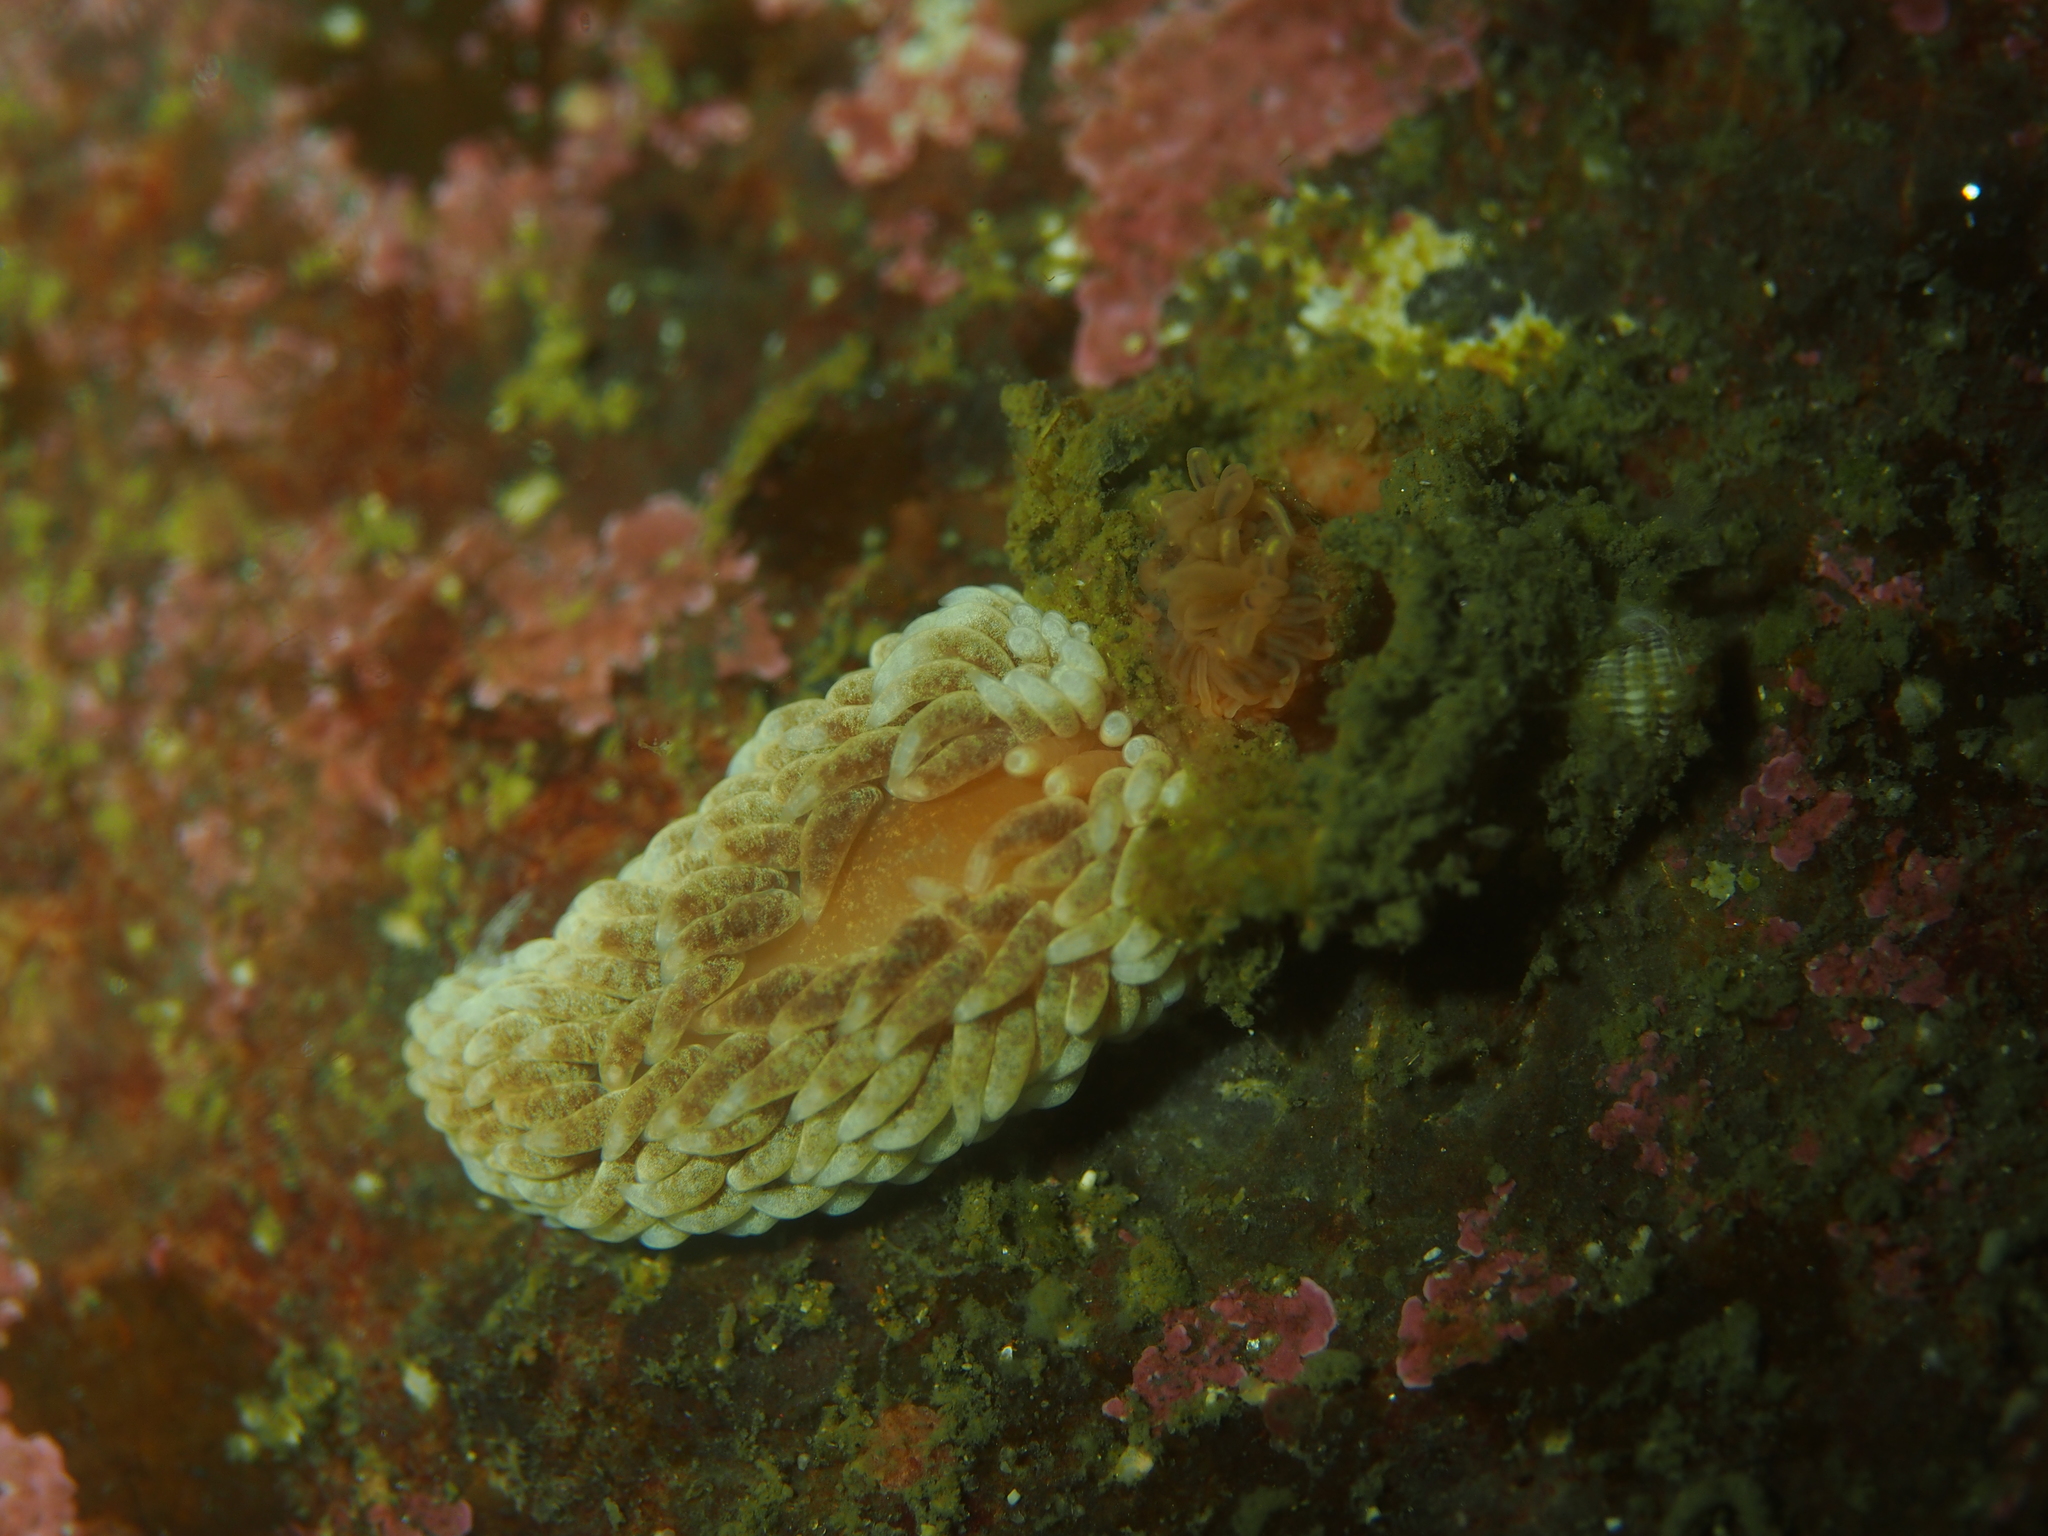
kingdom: Animalia
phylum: Mollusca
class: Gastropoda
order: Nudibranchia
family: Aeolidiidae
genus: Aeolidiella
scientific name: Aeolidiella glauca
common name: Orange-brown aeolid
